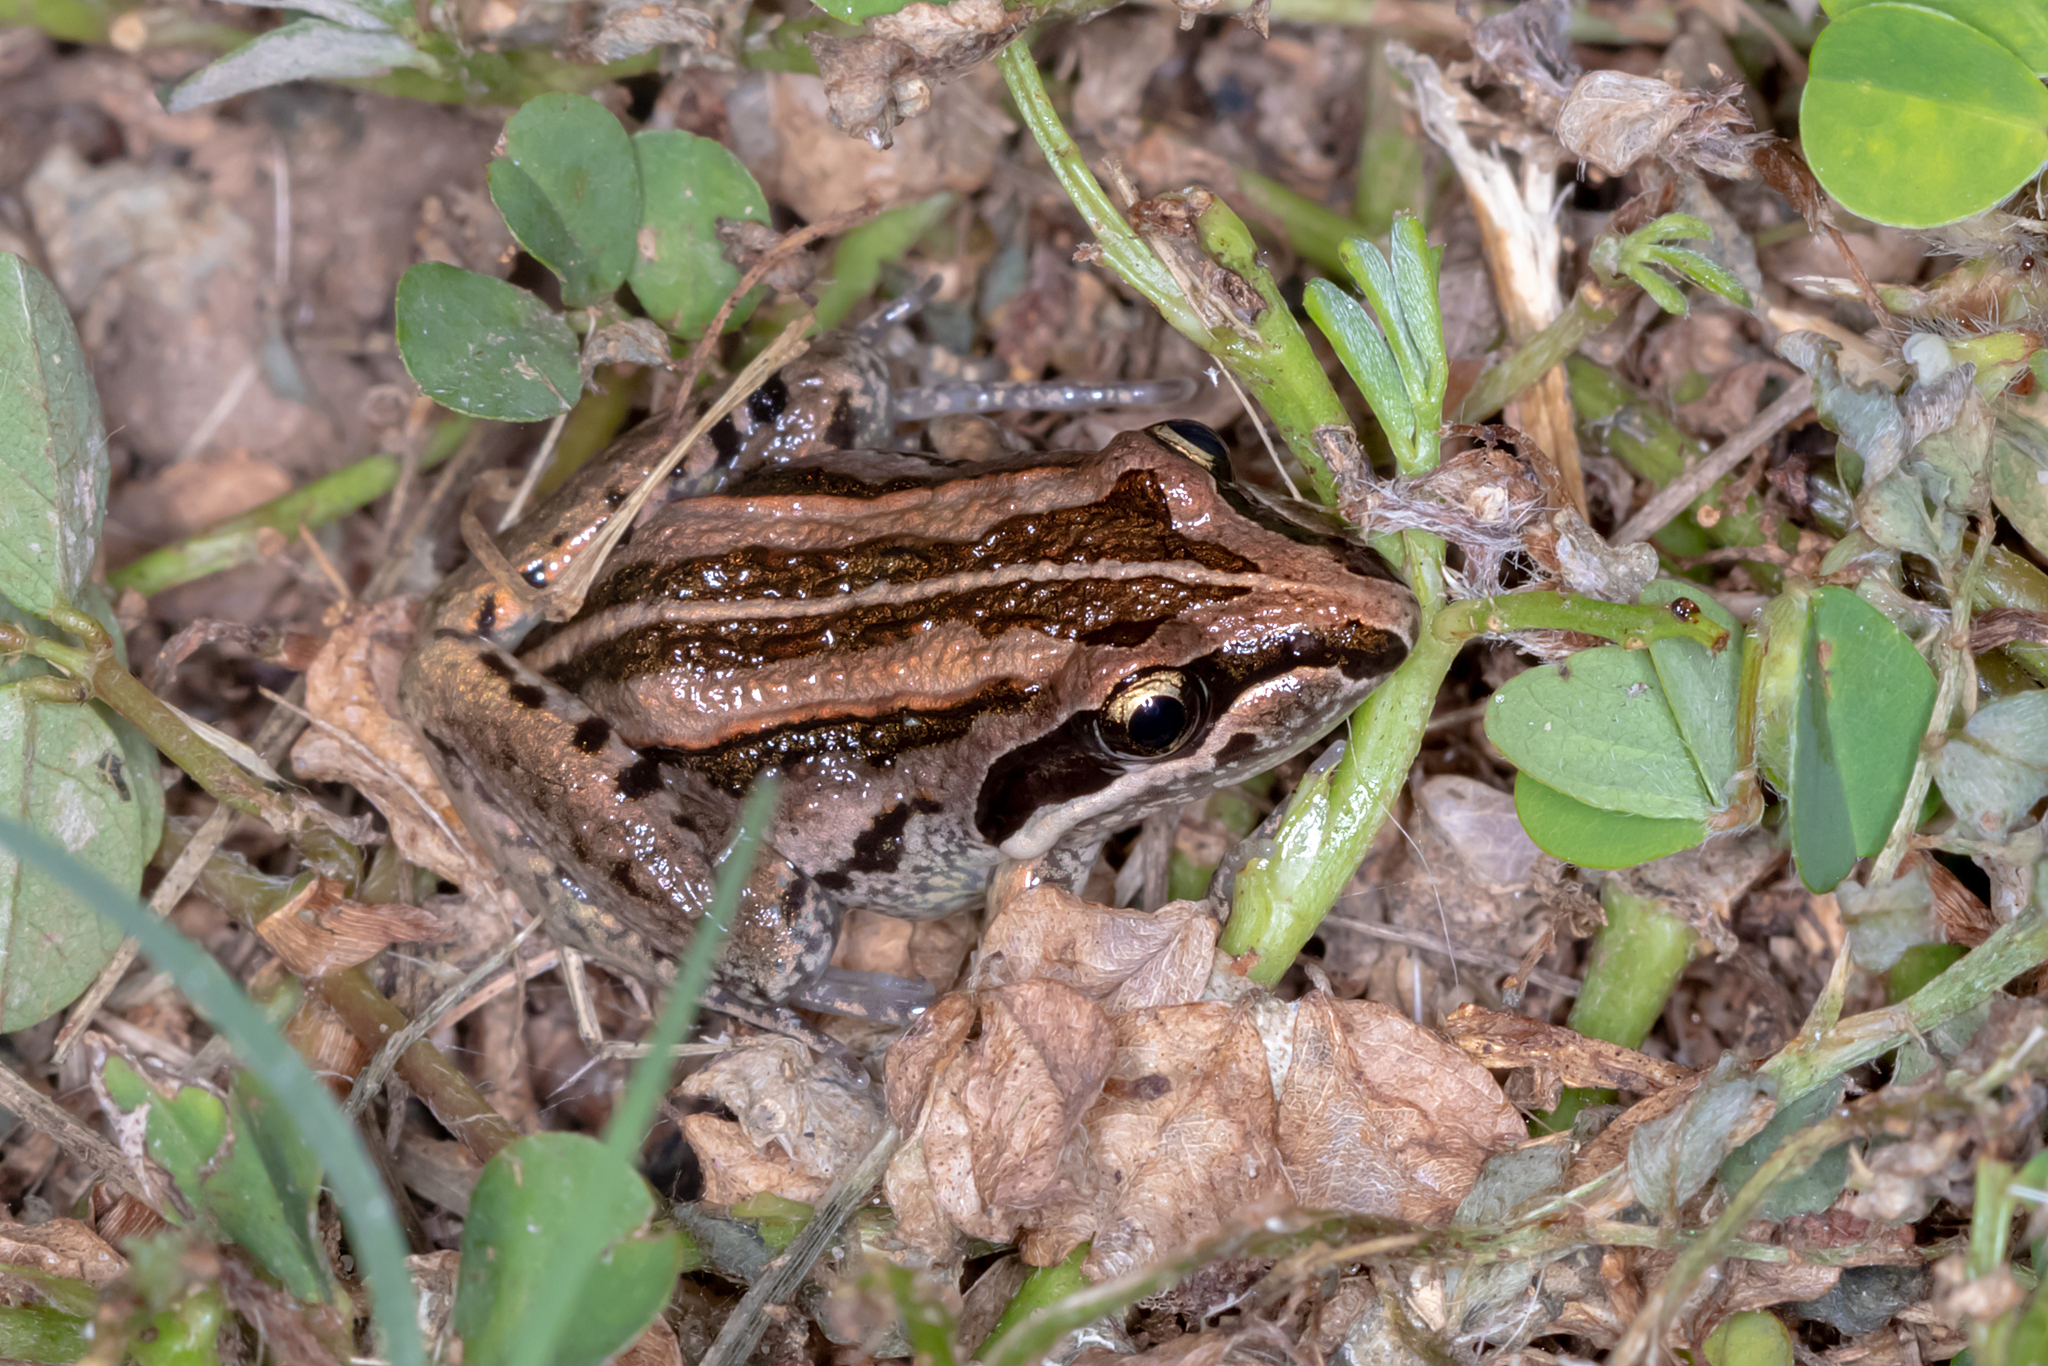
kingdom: Animalia
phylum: Chordata
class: Amphibia
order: Anura
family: Limnodynastidae
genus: Limnodynastes
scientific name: Limnodynastes peronii
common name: Brown frog
